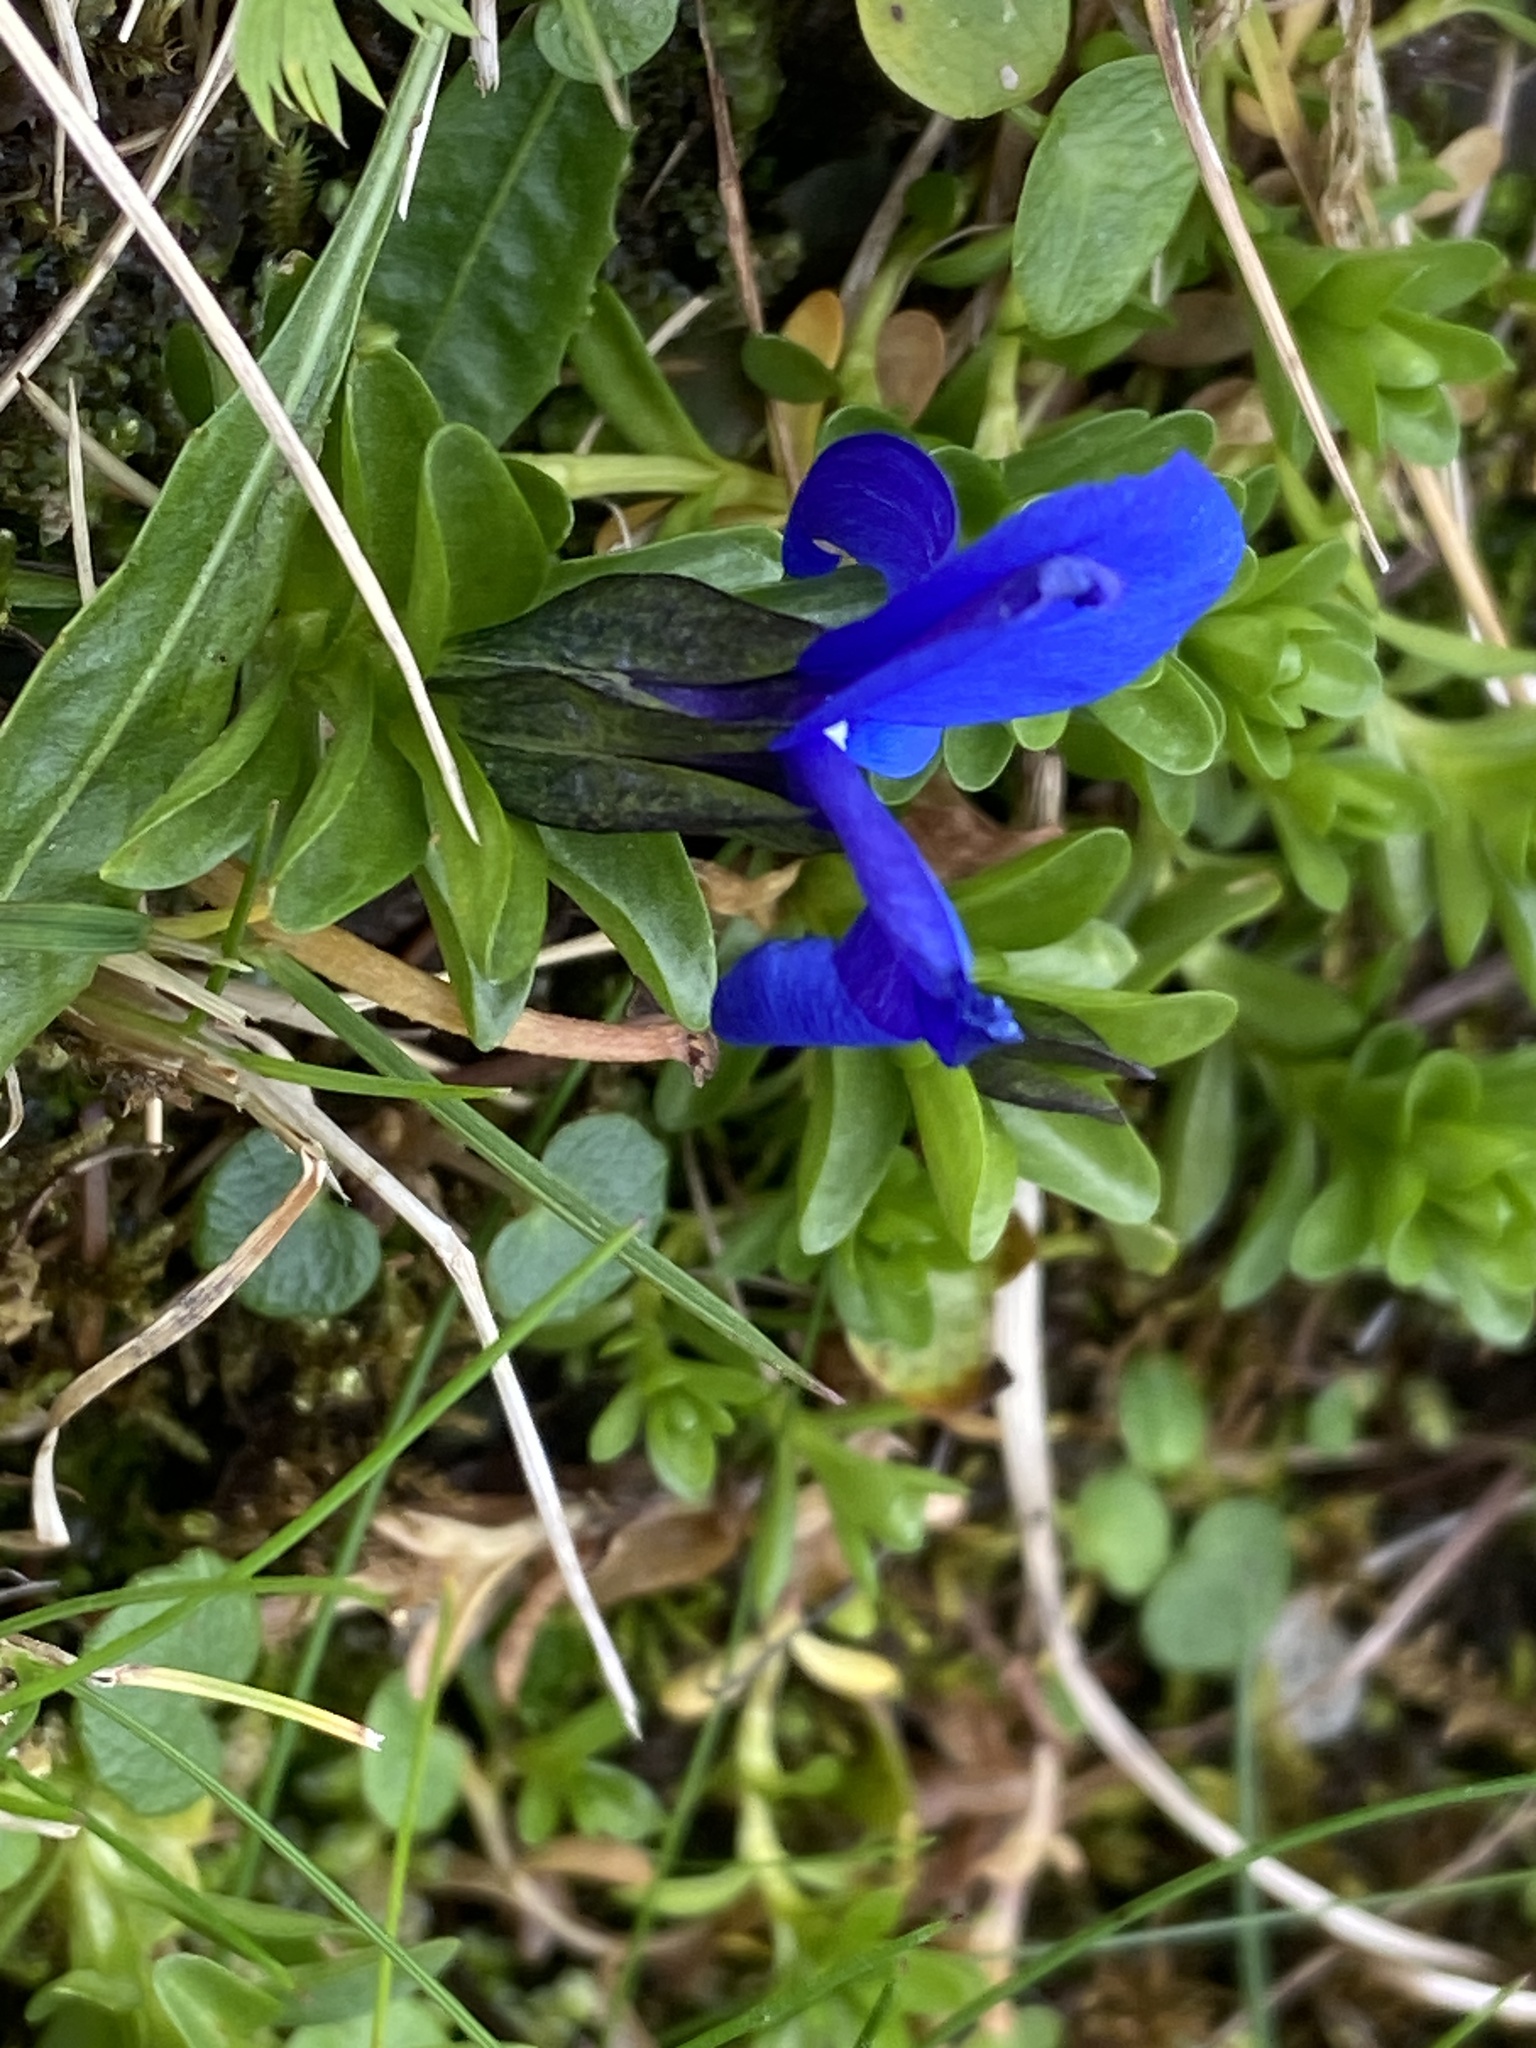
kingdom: Plantae
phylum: Tracheophyta
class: Magnoliopsida
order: Gentianales
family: Gentianaceae
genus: Gentiana
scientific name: Gentiana bavarica
